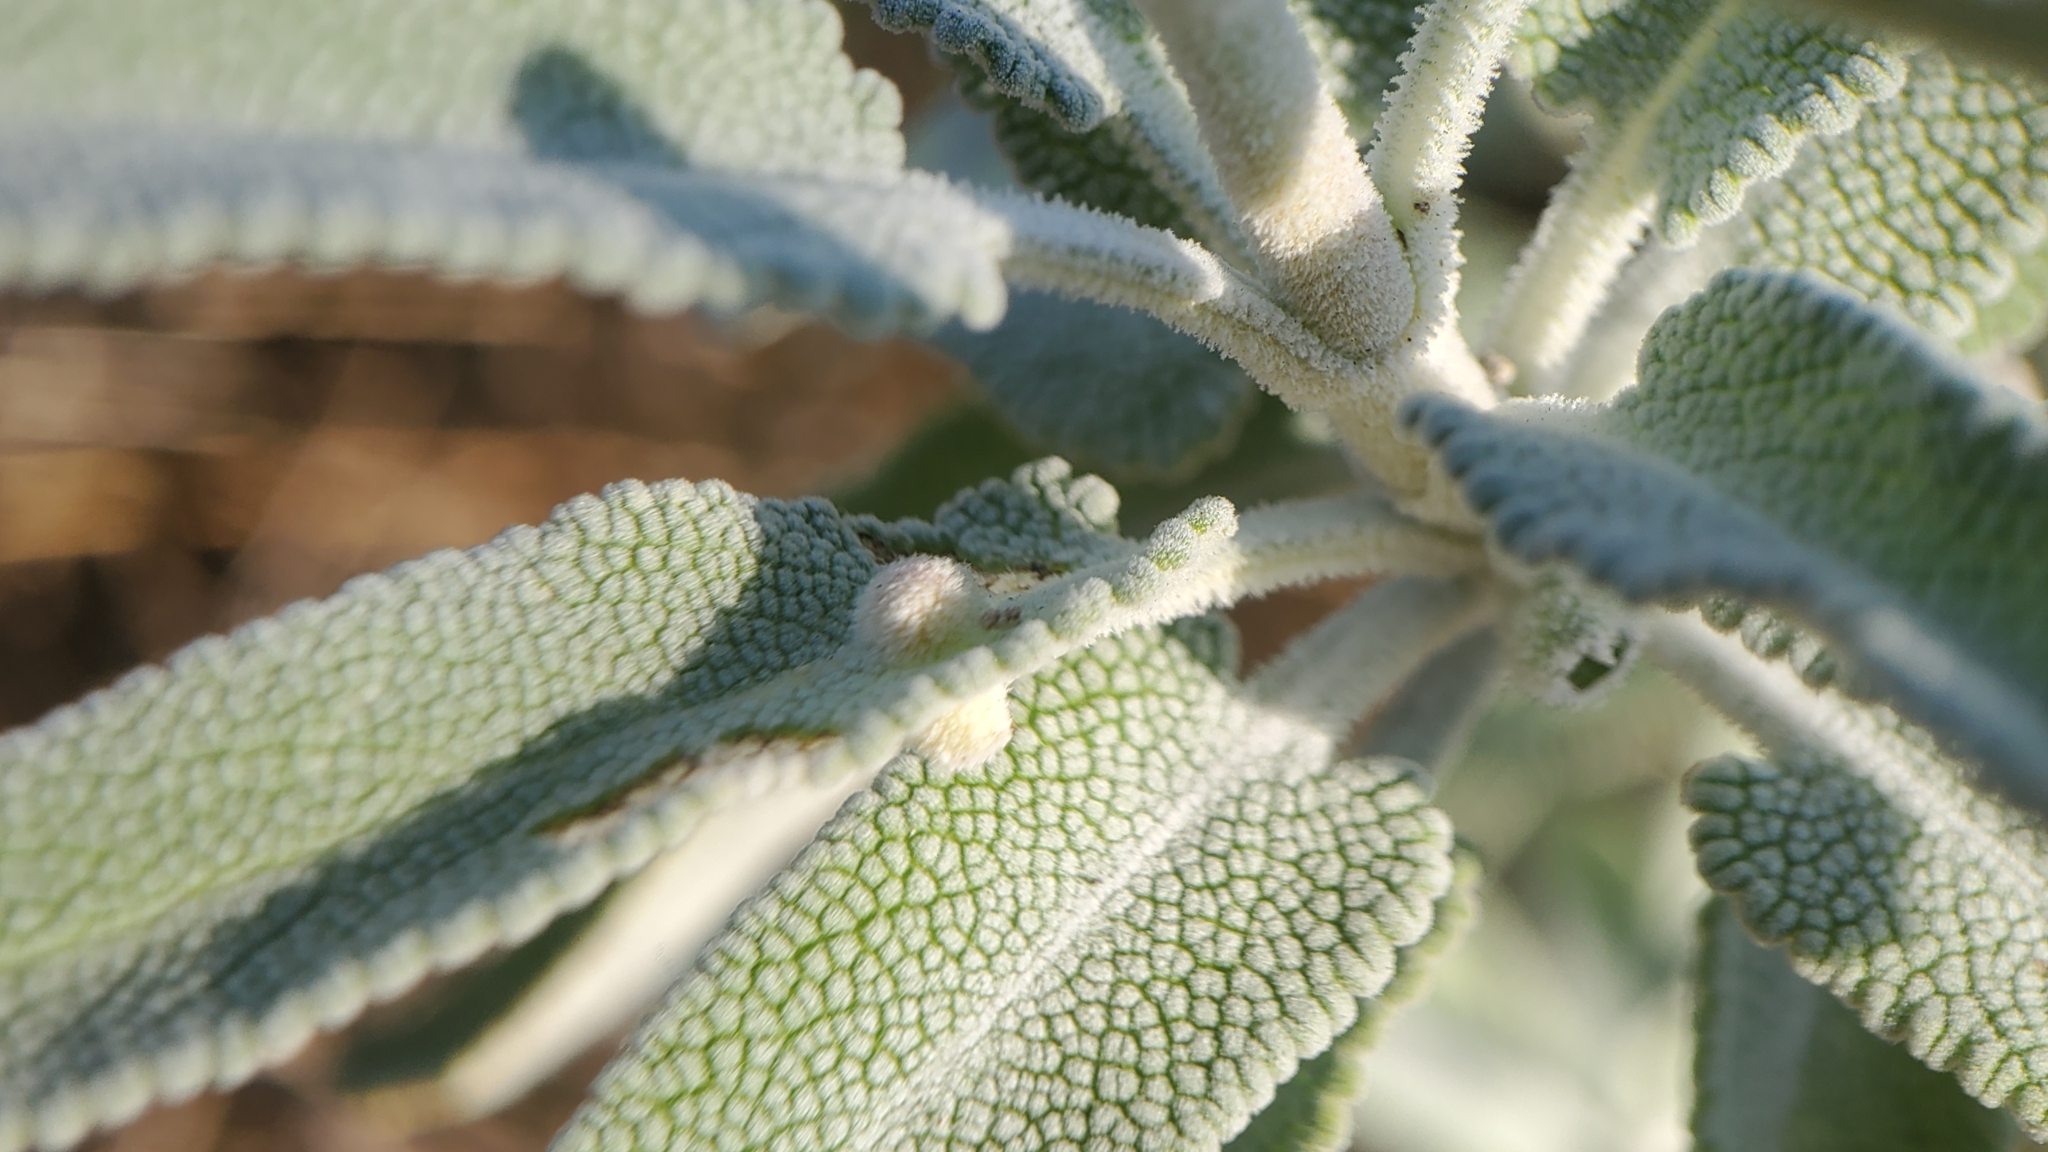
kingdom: Plantae
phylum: Tracheophyta
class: Magnoliopsida
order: Lamiales
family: Lamiaceae
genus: Salvia
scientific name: Salvia leucophylla
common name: Purple sage
